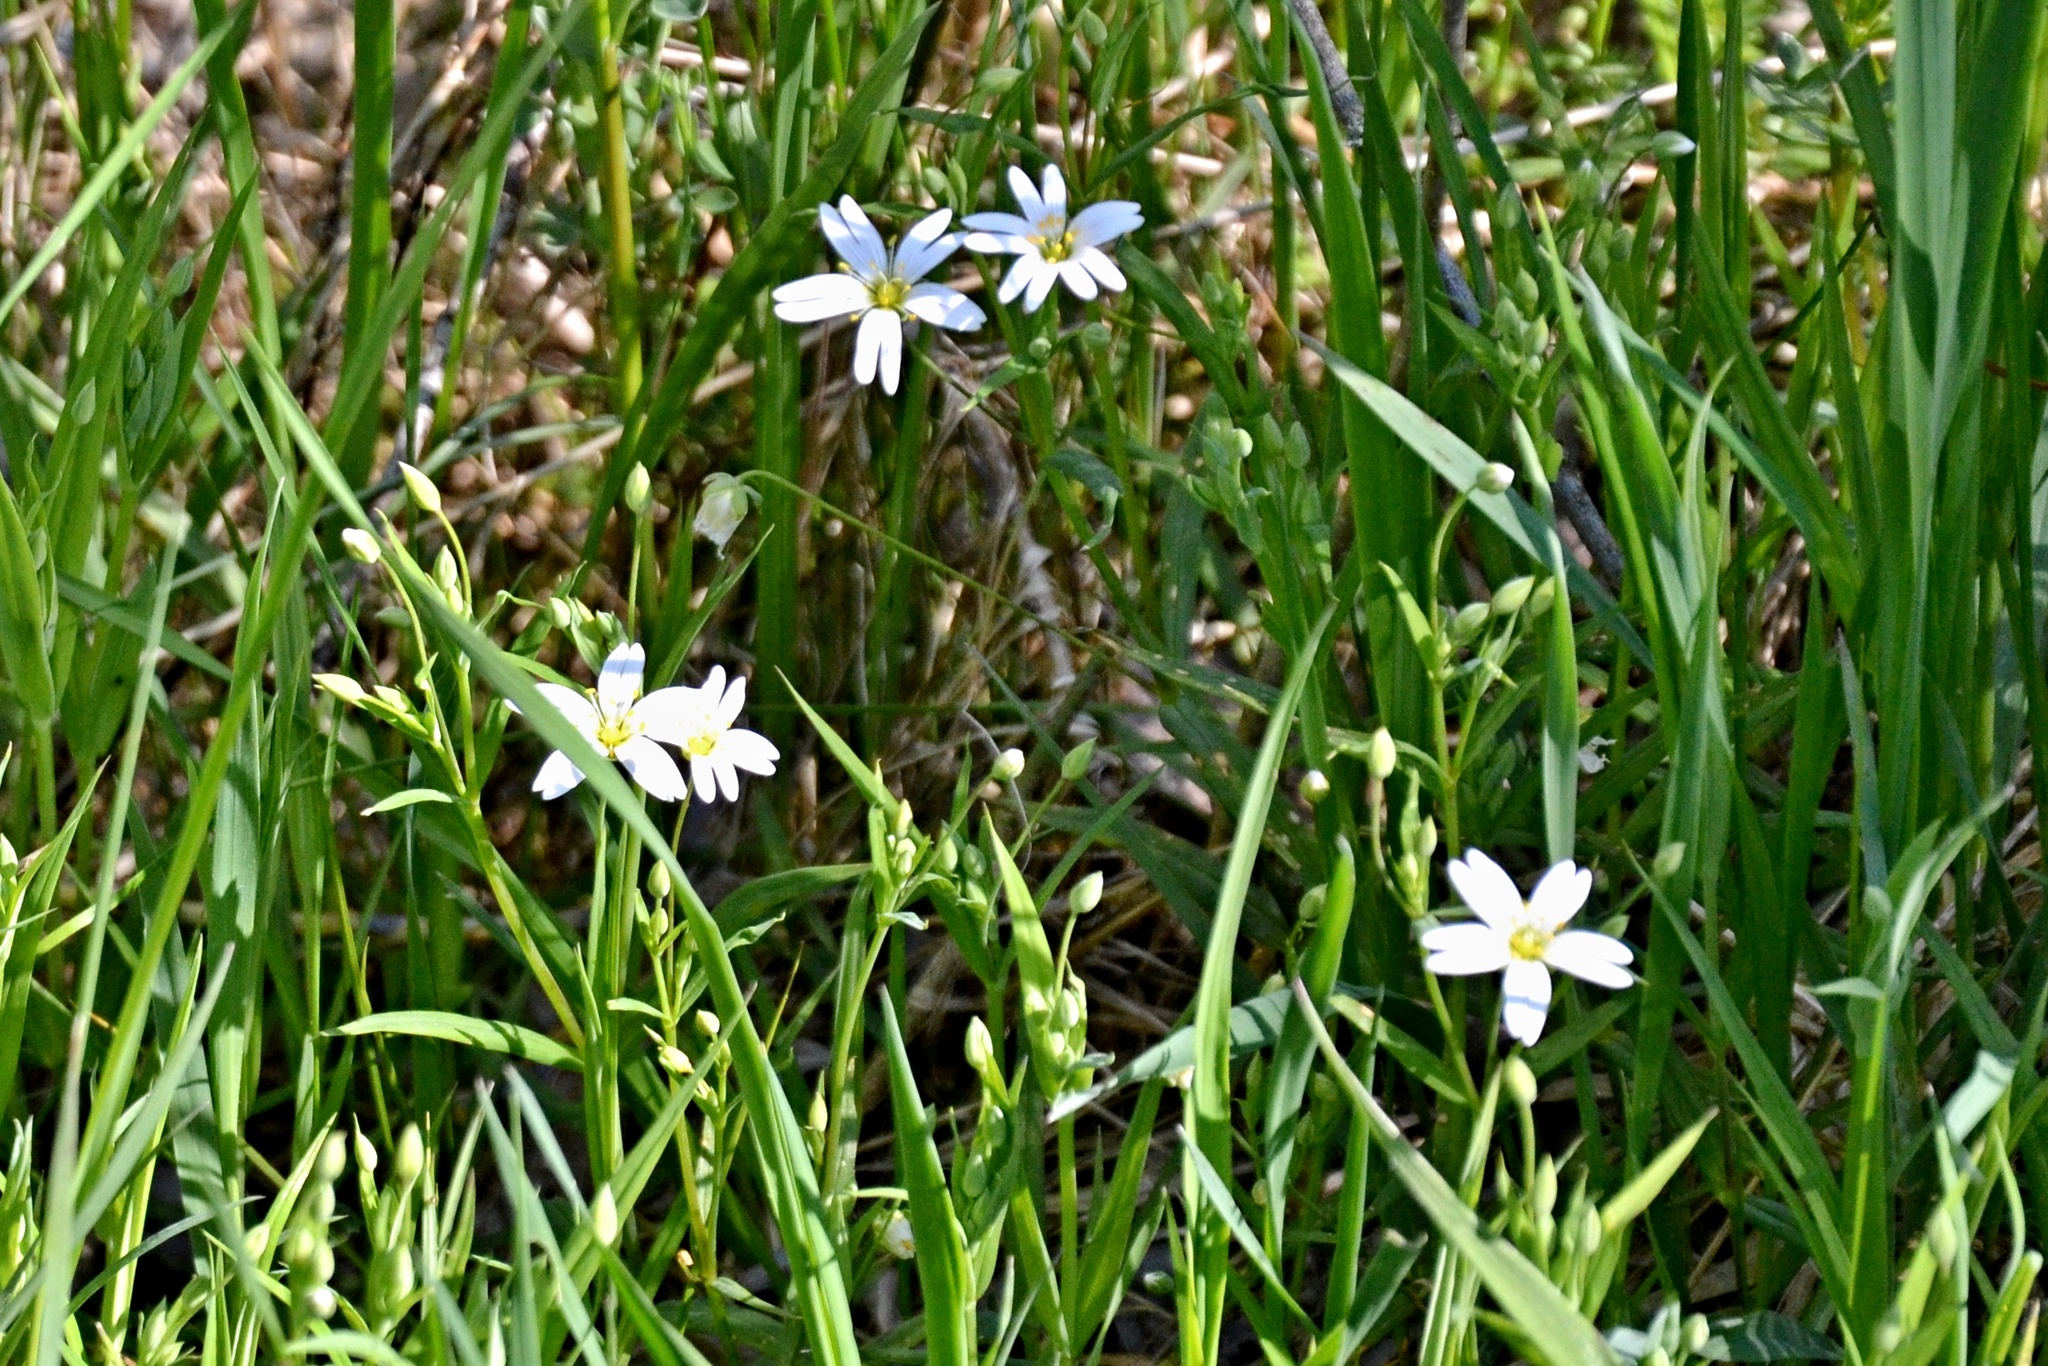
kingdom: Plantae
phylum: Tracheophyta
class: Magnoliopsida
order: Caryophyllales
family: Caryophyllaceae
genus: Rabelera
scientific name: Rabelera holostea
